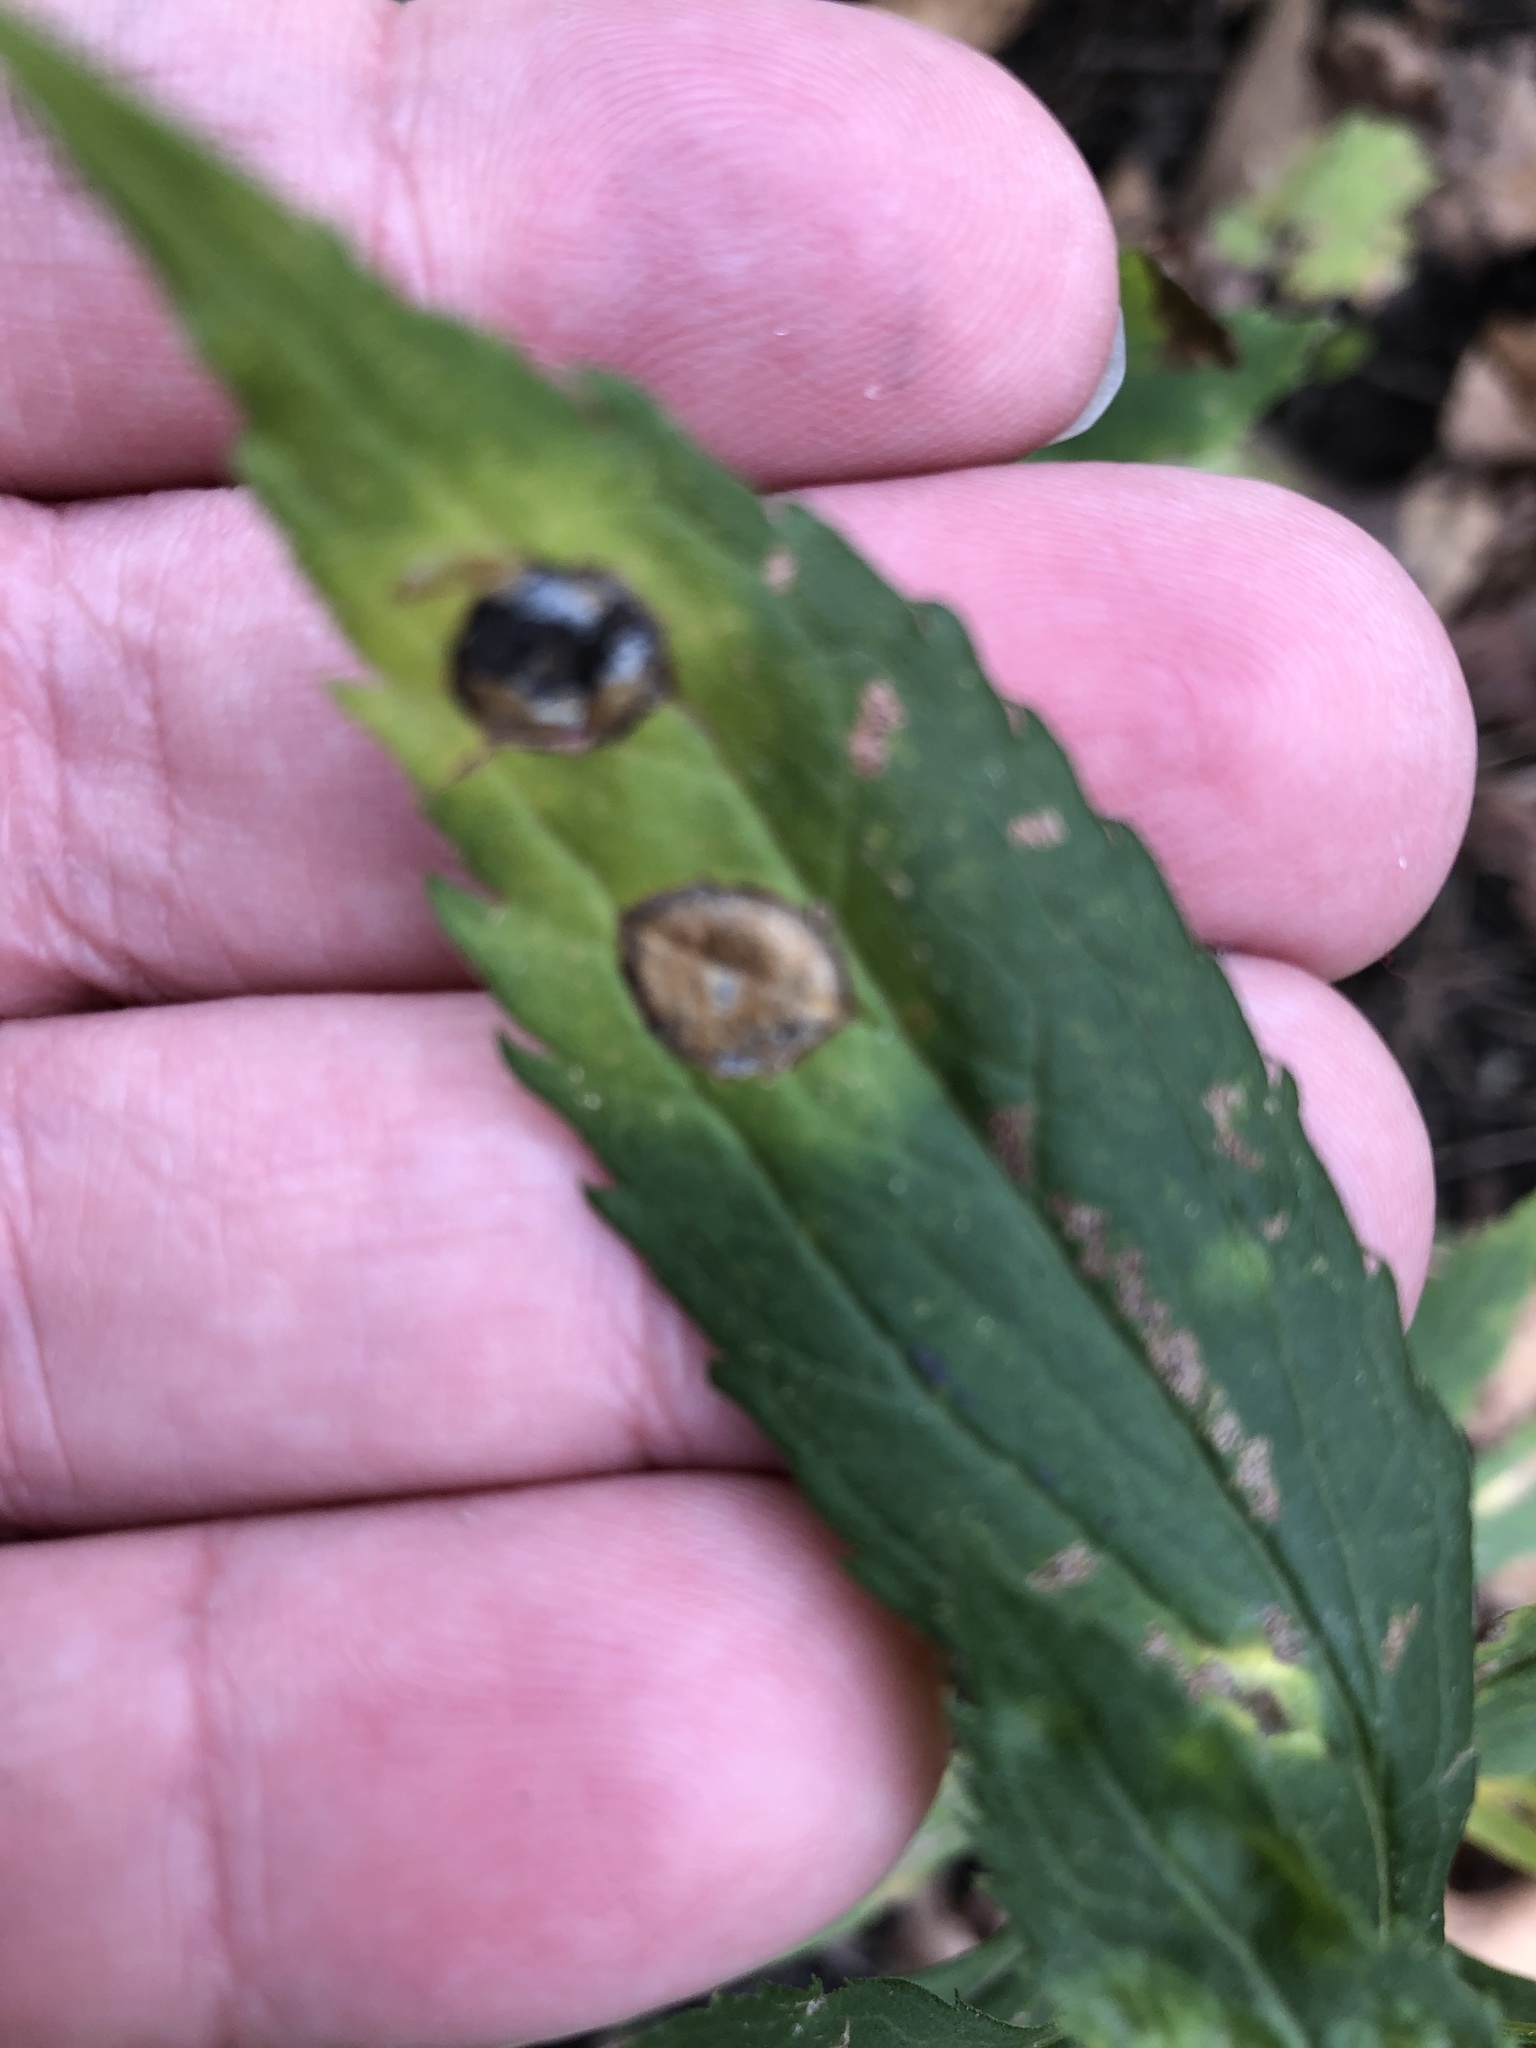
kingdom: Animalia
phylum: Arthropoda
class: Insecta
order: Diptera
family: Cecidomyiidae
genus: Asteromyia
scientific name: Asteromyia carbonifera
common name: Carbonifera goldenrod gall midge
